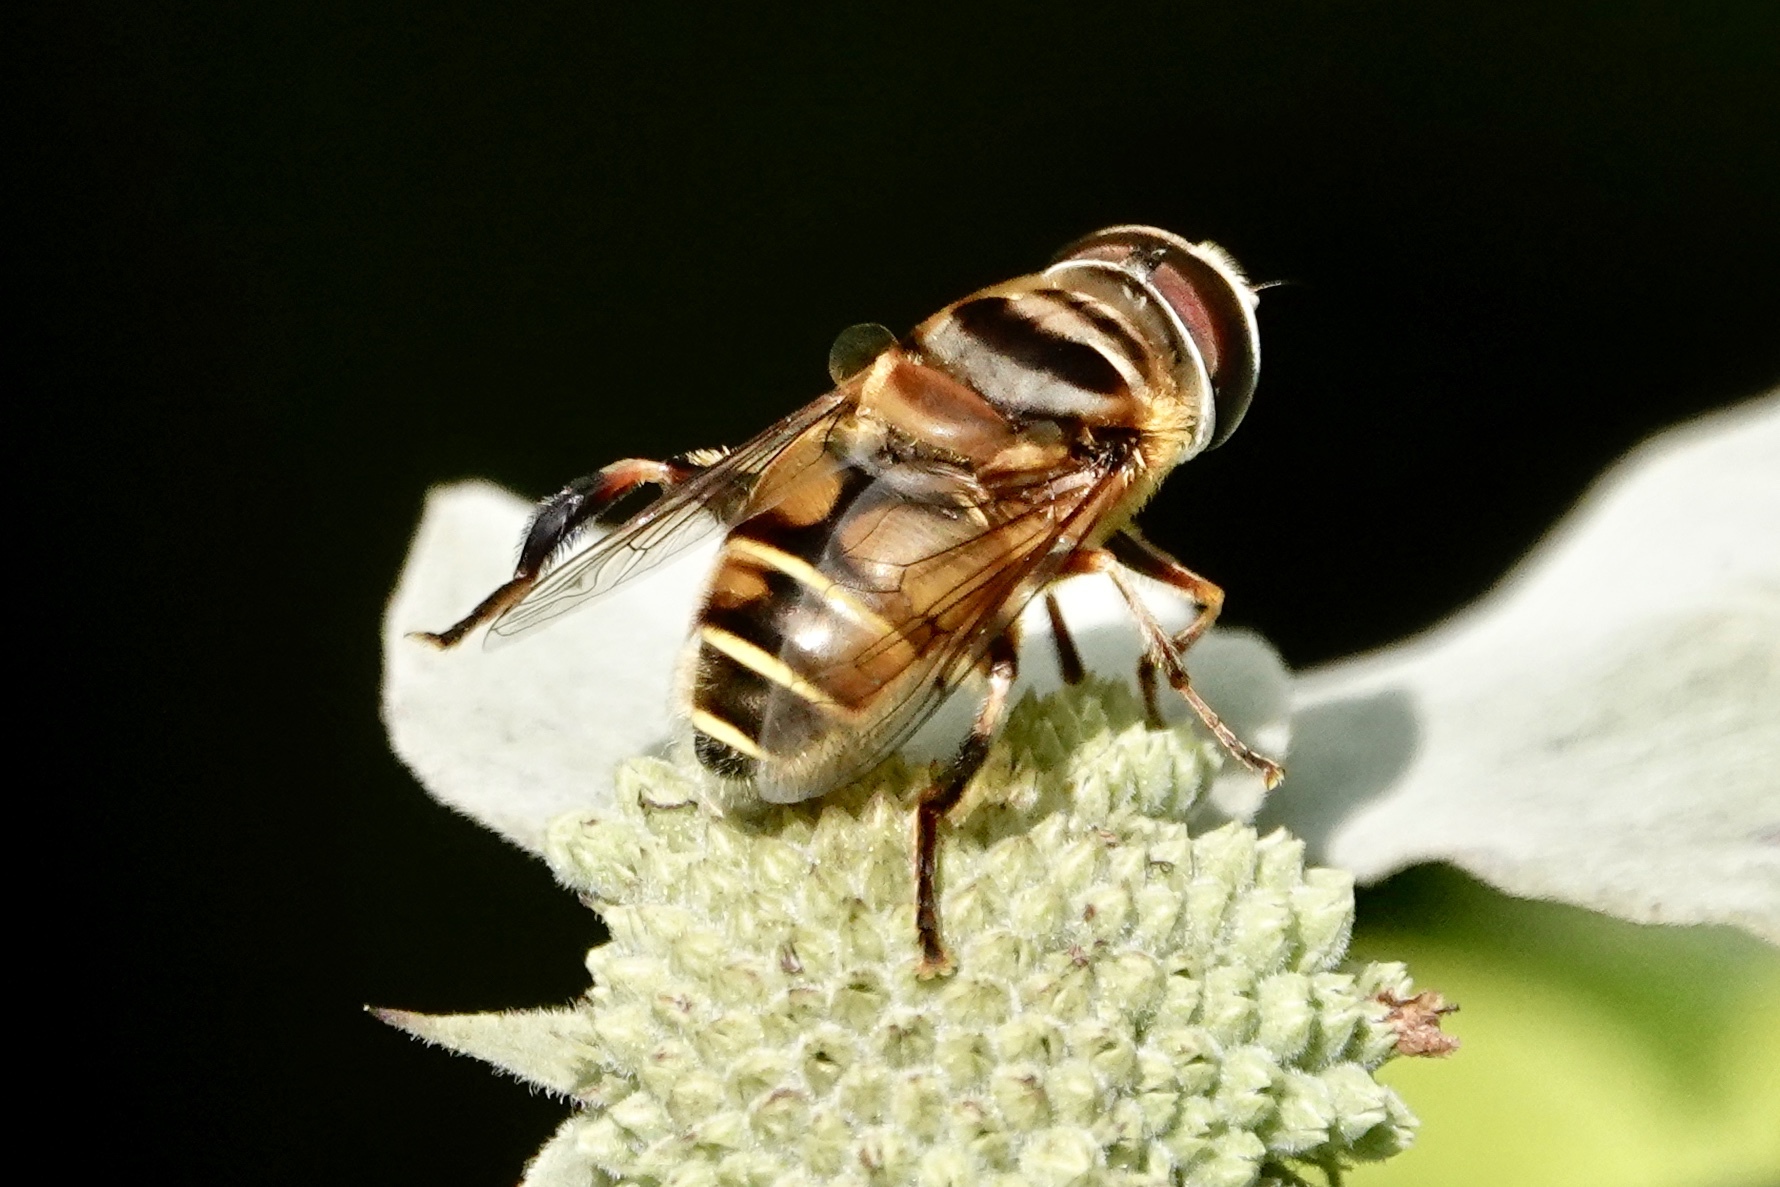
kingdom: Animalia
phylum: Arthropoda
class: Insecta
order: Diptera
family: Syrphidae
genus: Palpada
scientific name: Palpada vinetorum
